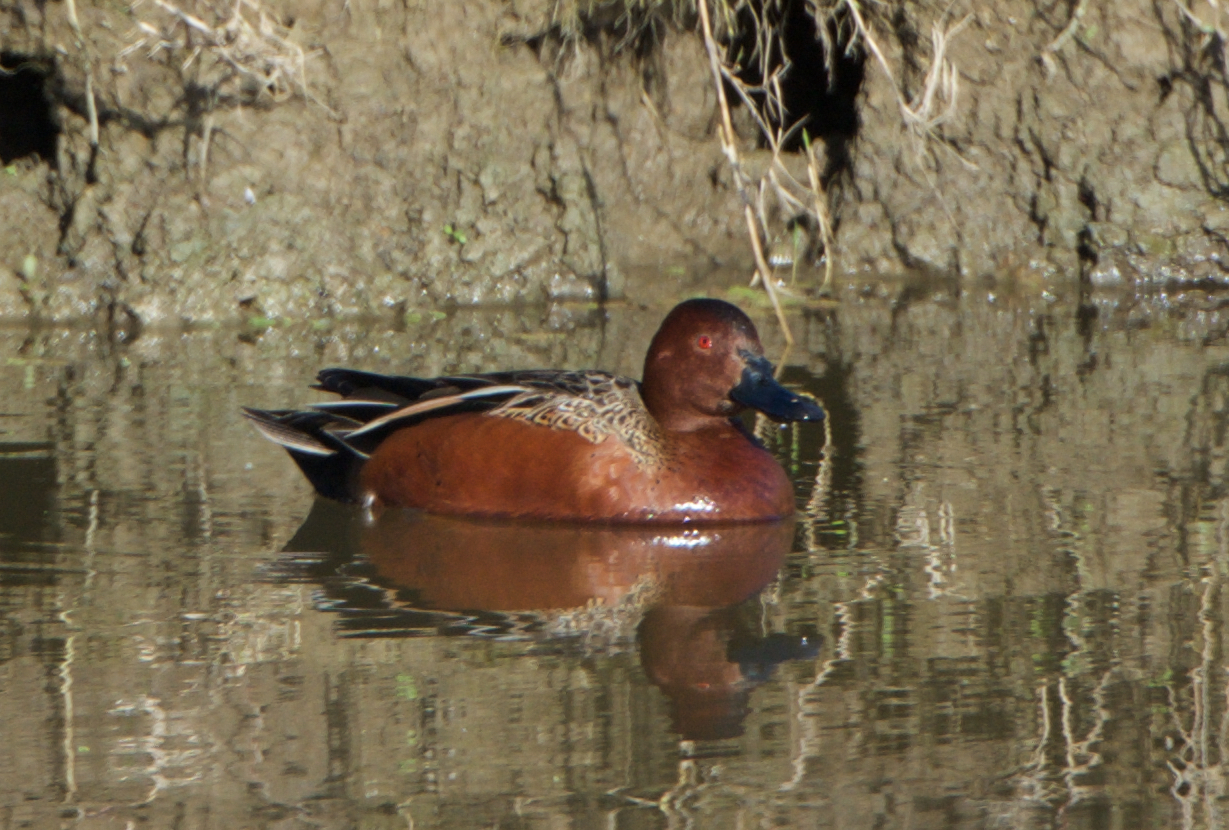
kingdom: Animalia
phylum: Chordata
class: Aves
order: Anseriformes
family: Anatidae
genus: Spatula
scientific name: Spatula cyanoptera
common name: Cinnamon teal
